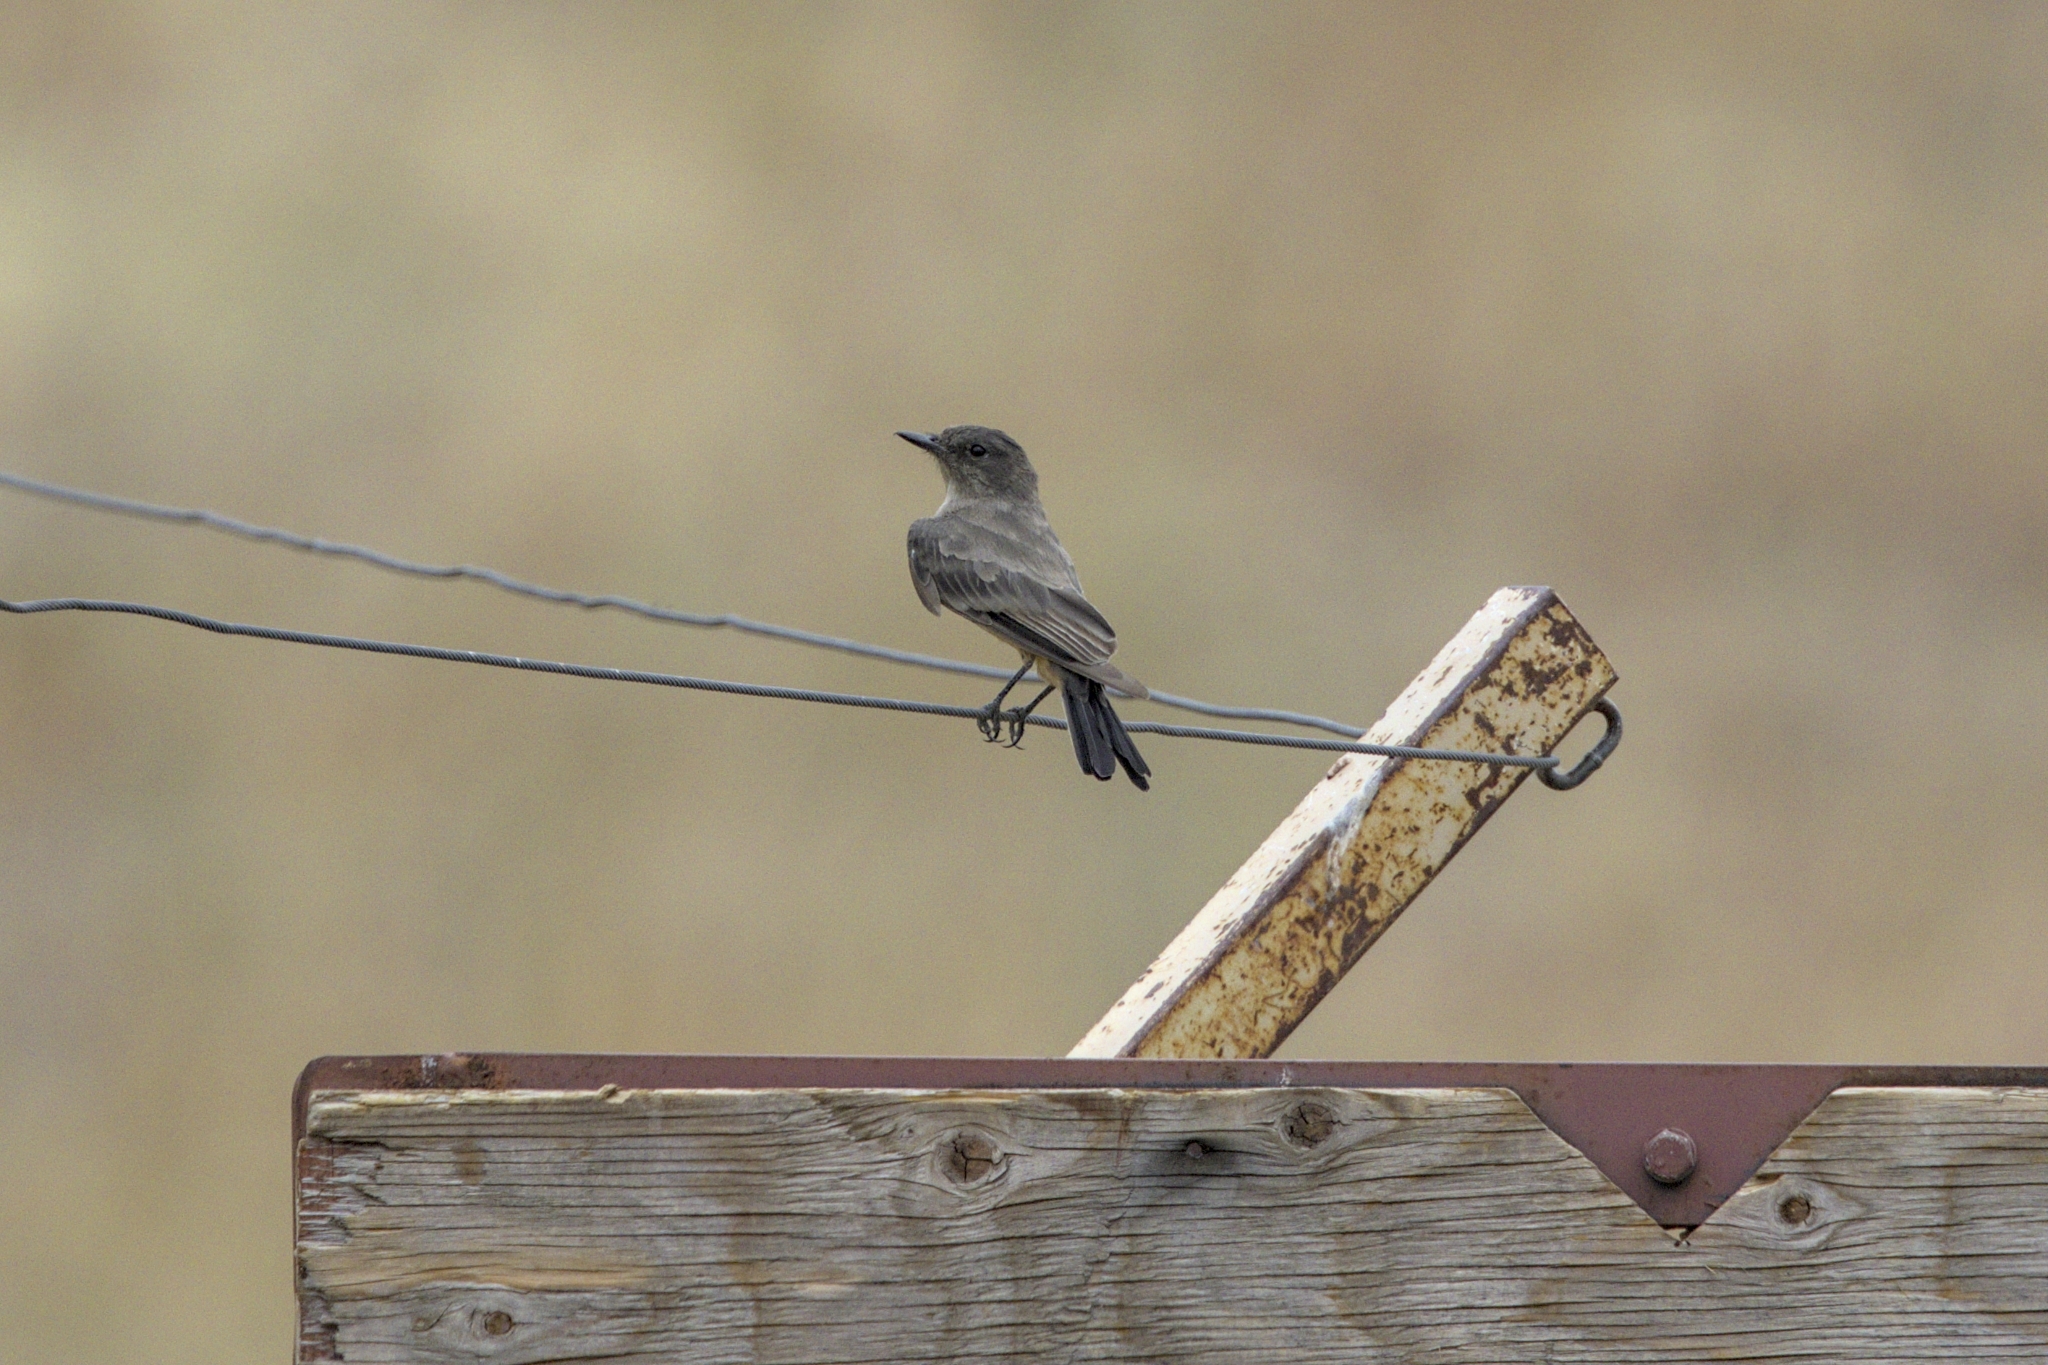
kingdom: Animalia
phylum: Chordata
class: Aves
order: Passeriformes
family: Tyrannidae
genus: Sayornis
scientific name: Sayornis saya
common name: Say's phoebe
